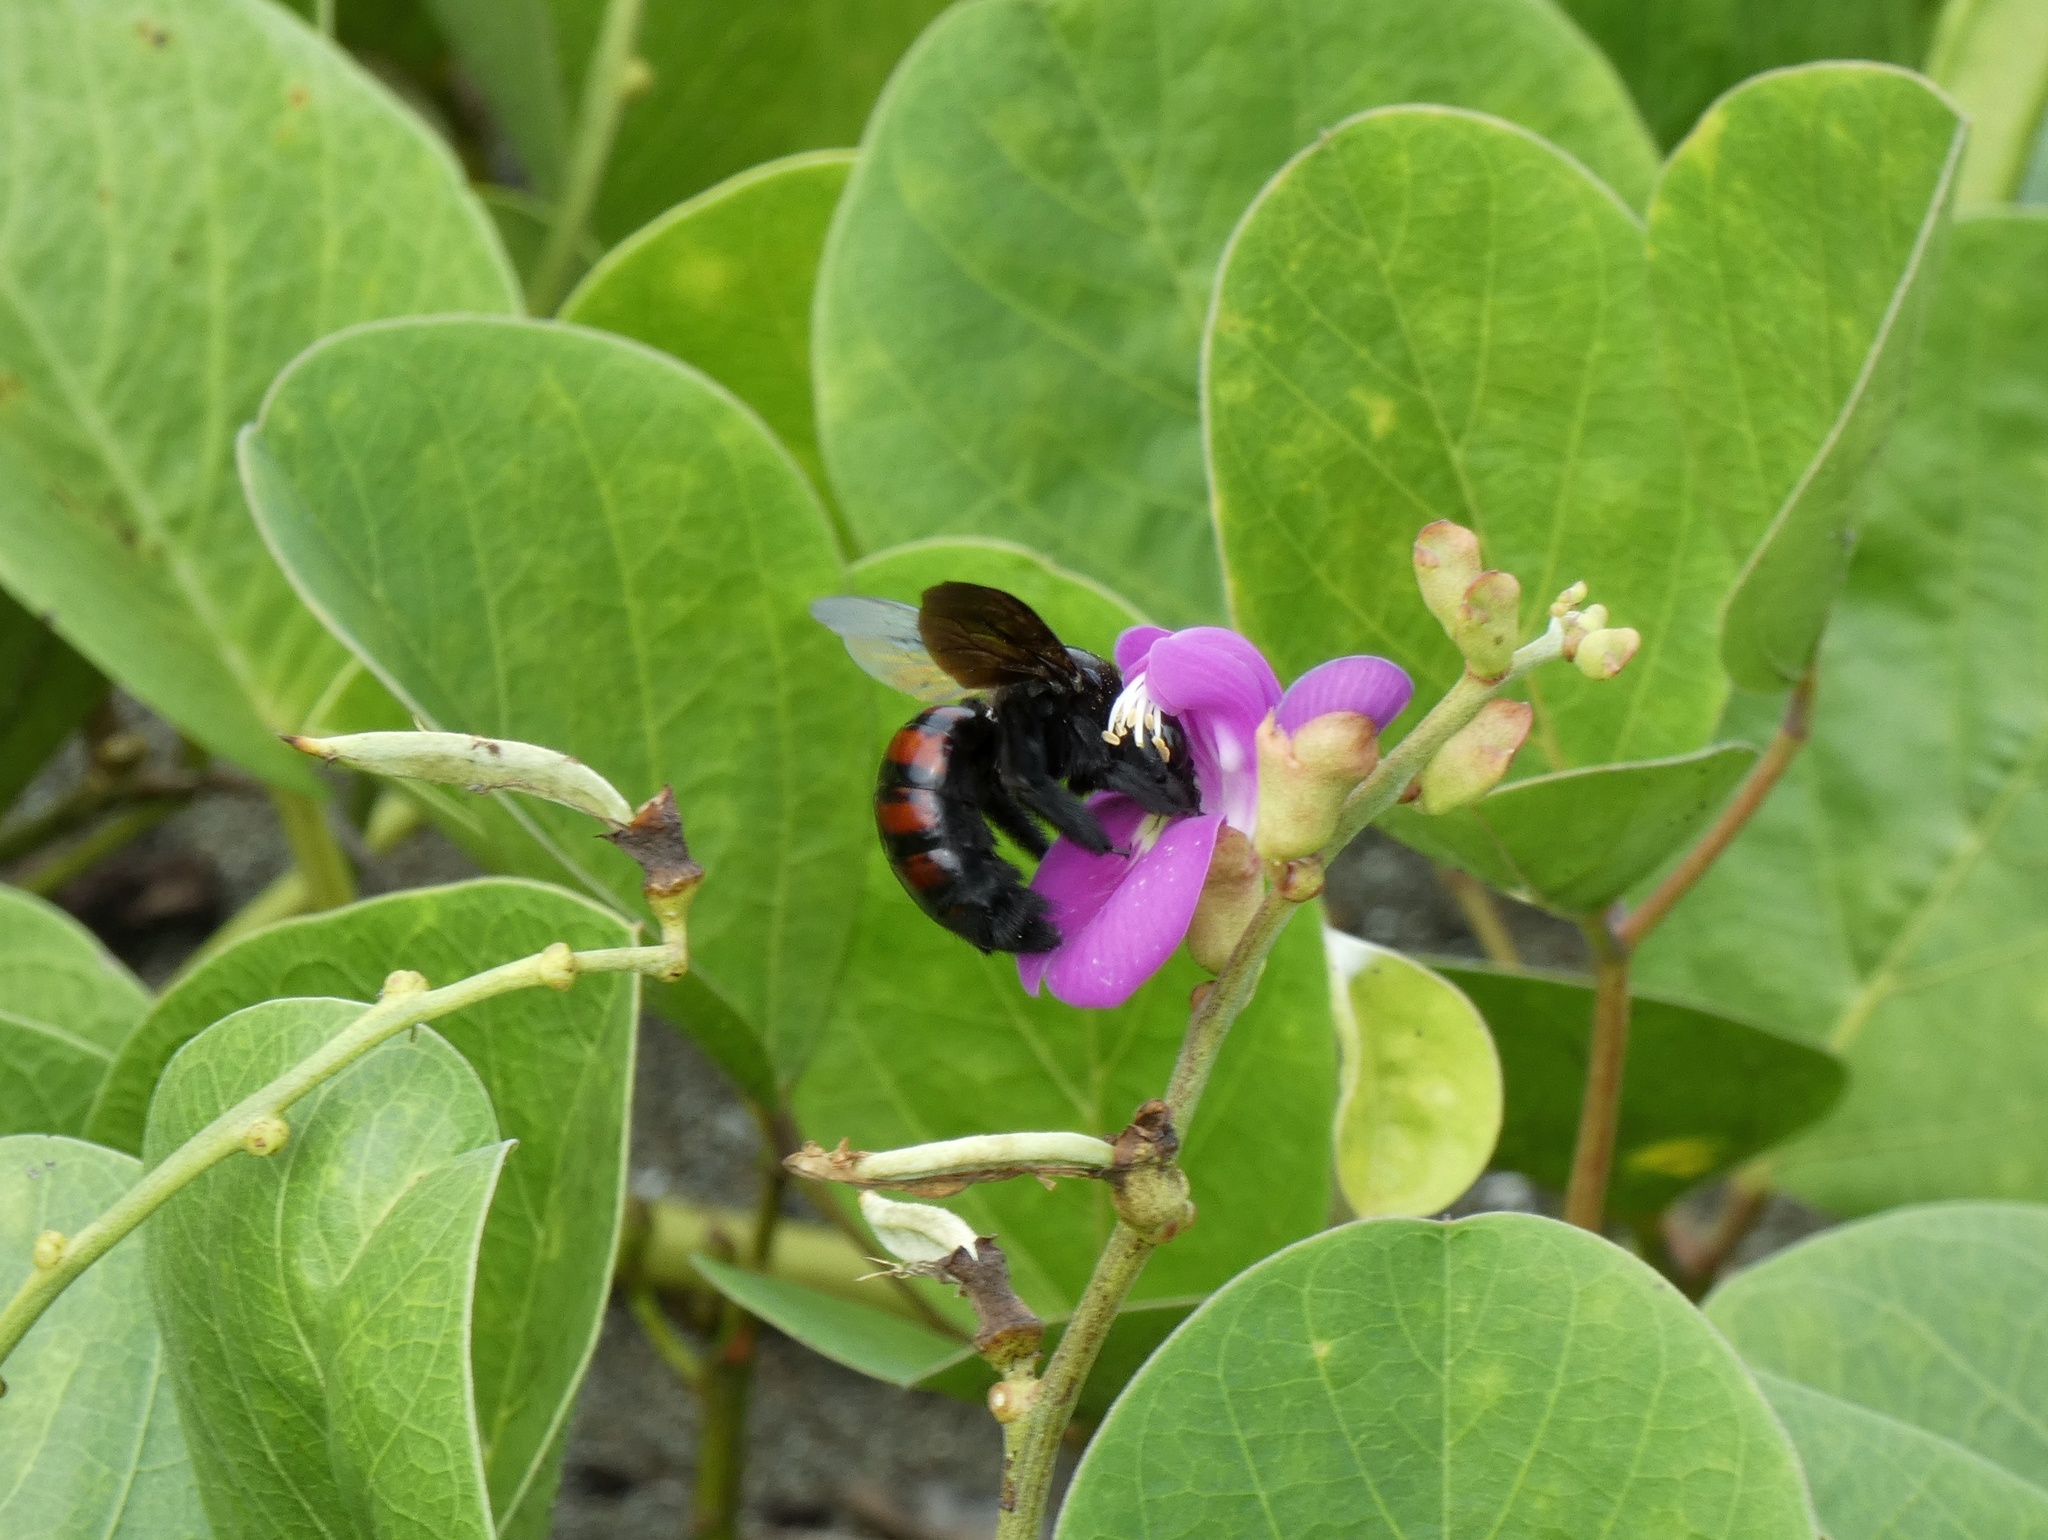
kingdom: Animalia
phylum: Arthropoda
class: Insecta
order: Hymenoptera
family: Apidae
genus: Xylocopa
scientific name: Xylocopa frontalis
